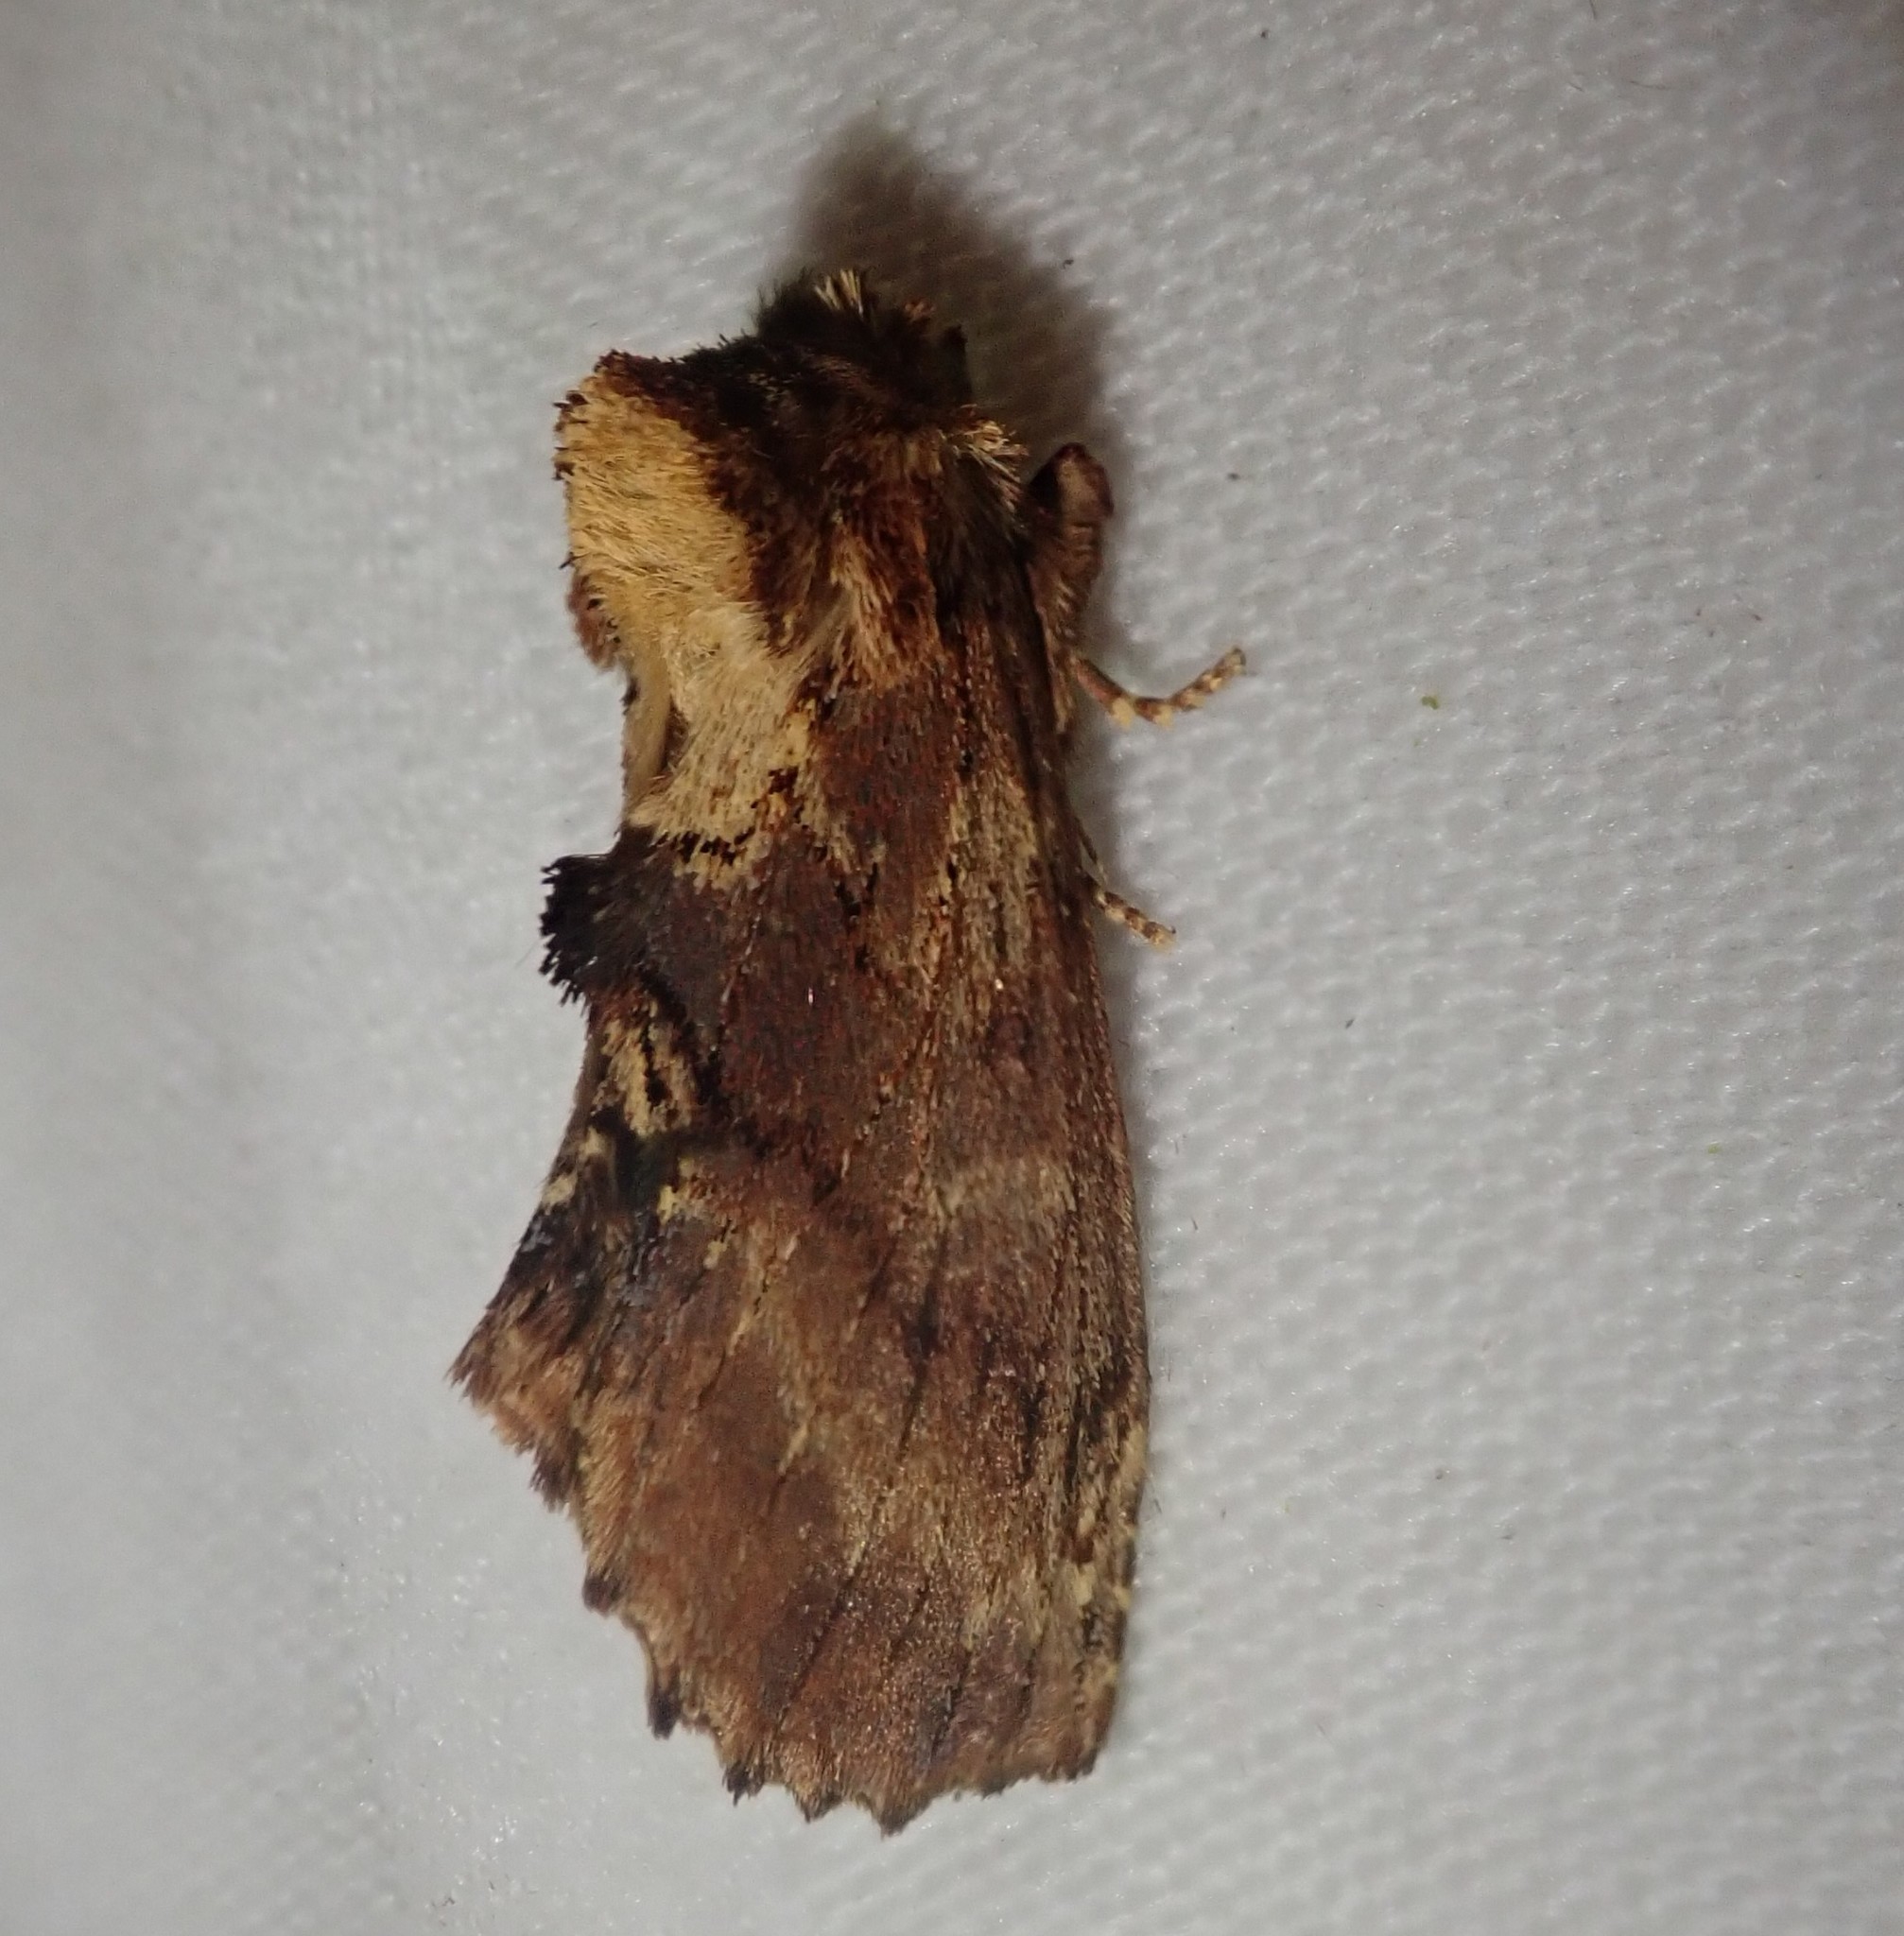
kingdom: Animalia
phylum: Arthropoda
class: Insecta
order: Lepidoptera
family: Notodontidae
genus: Ptilodon
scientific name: Ptilodon capucina
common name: Coxcomb prominent
